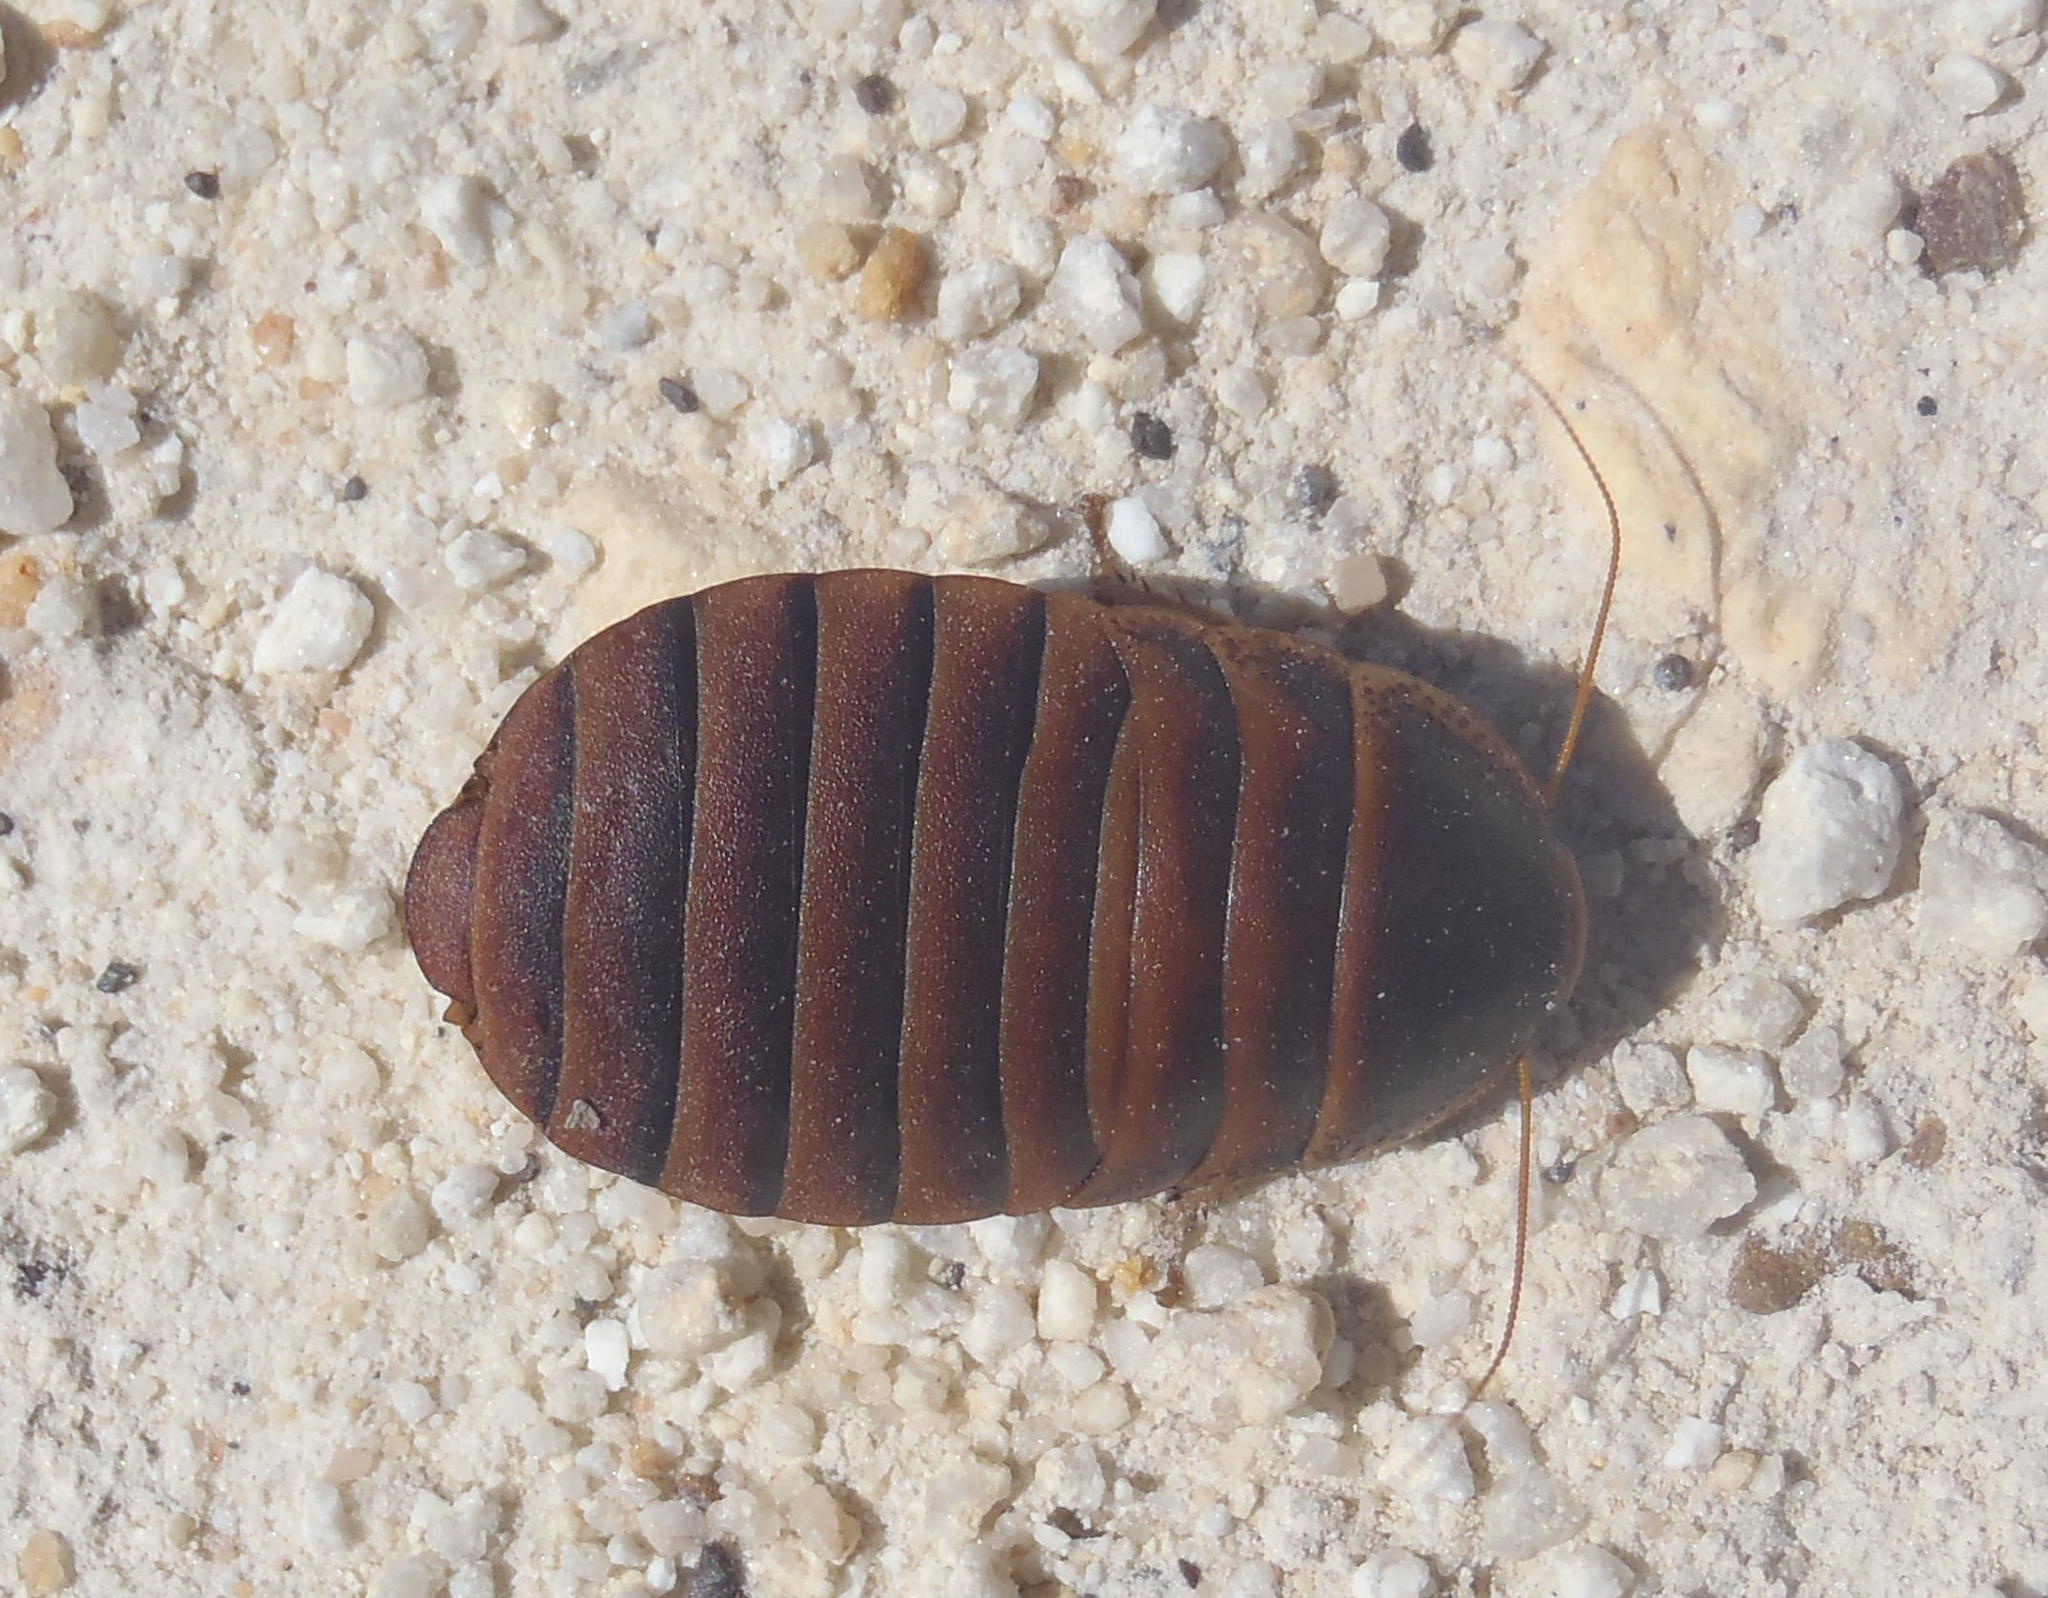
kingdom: Animalia
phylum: Arthropoda
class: Insecta
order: Blattodea
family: Blaberidae
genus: Aptera
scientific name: Aptera fusca
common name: Cape mountain cockroach
